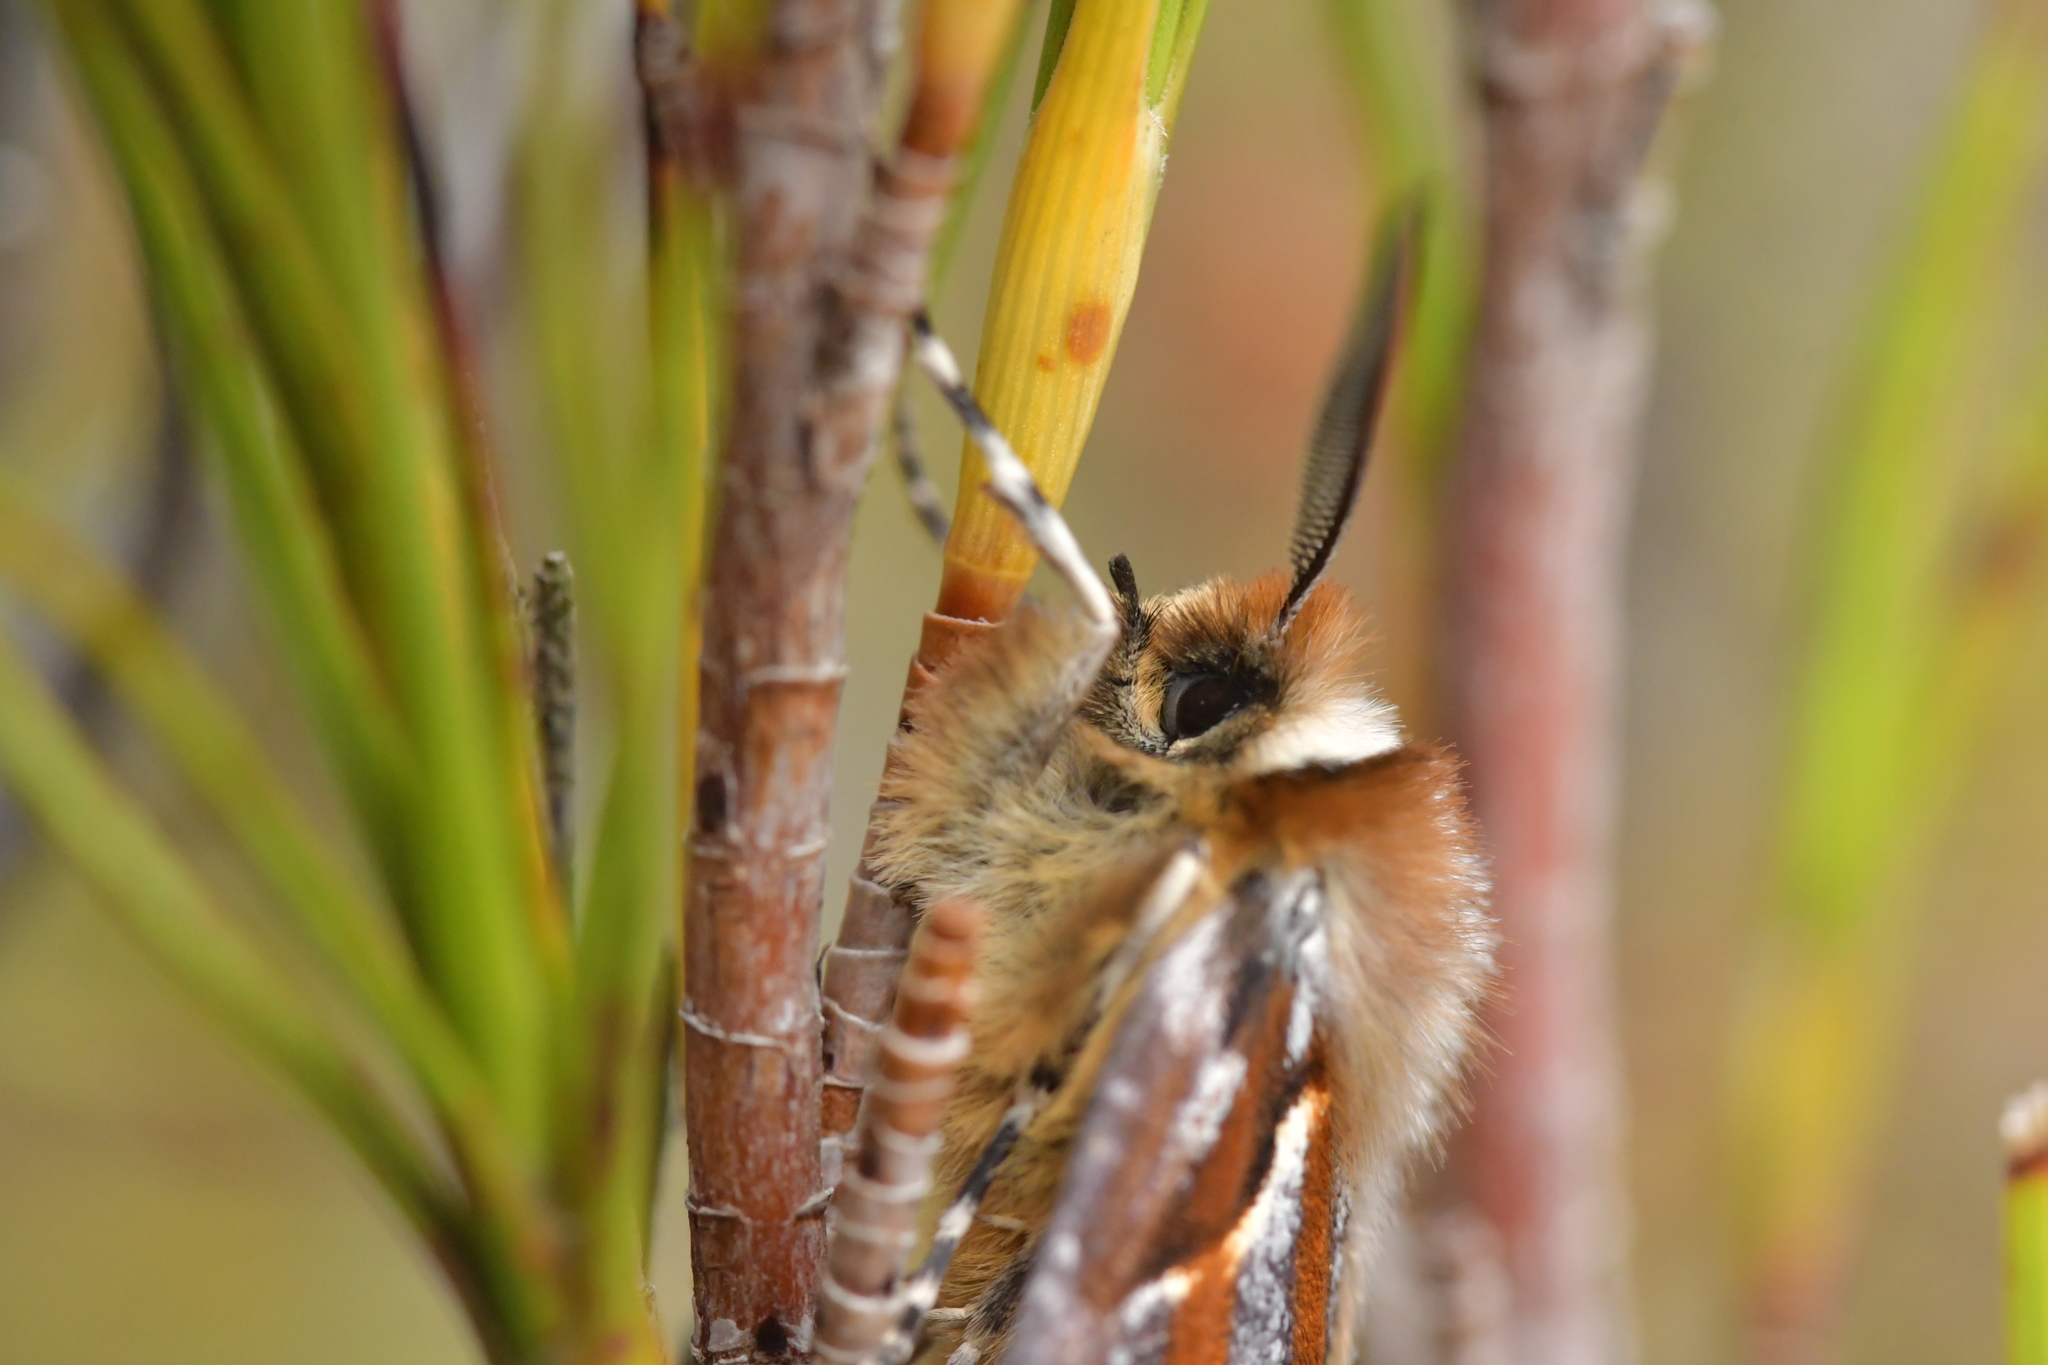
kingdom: Animalia
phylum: Arthropoda
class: Insecta
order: Lepidoptera
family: Geometridae
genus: Declana
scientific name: Declana
